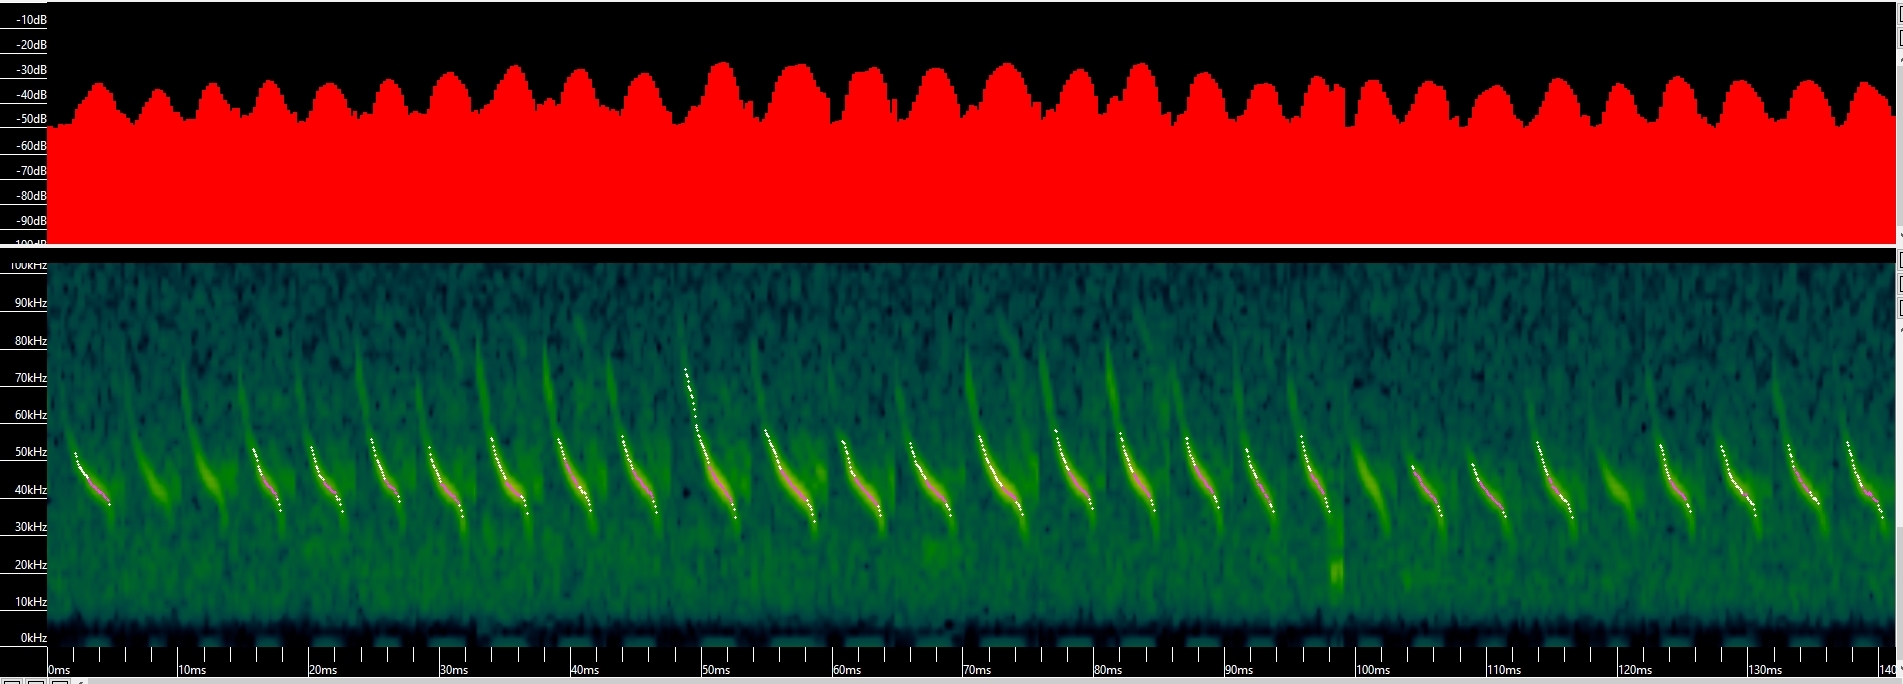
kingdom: Animalia
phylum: Chordata
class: Mammalia
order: Chiroptera
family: Vespertilionidae
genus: Myotis
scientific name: Myotis lucifugus
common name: Little brown bat
